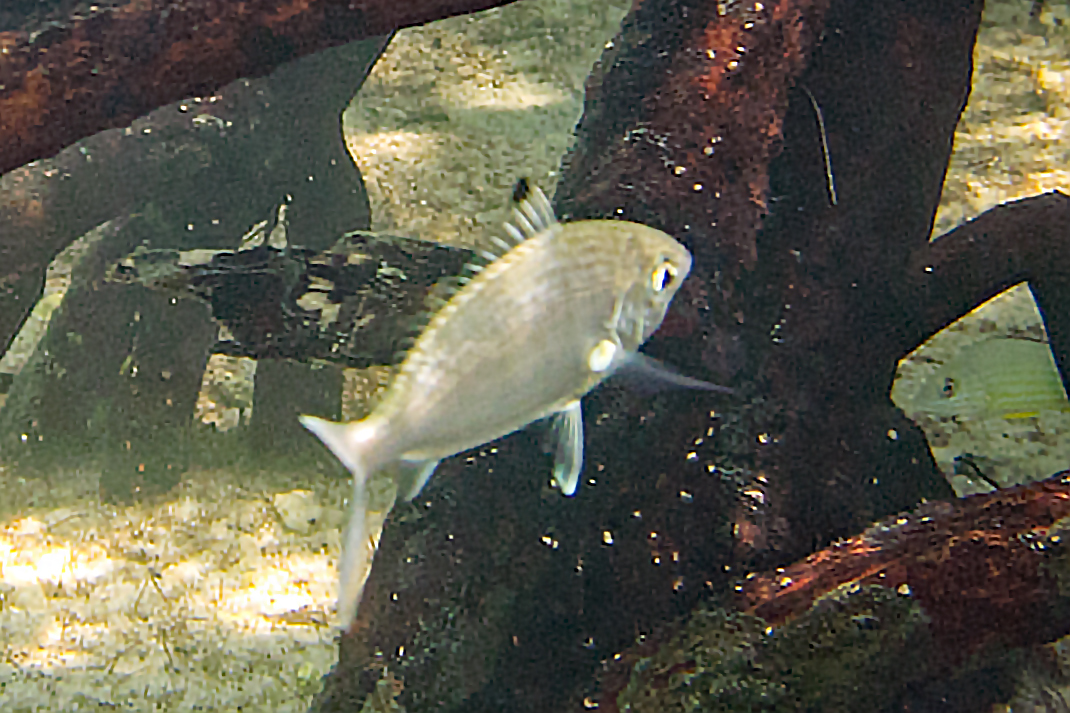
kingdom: Animalia
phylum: Chordata
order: Perciformes
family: Gerreidae
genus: Gerres
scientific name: Gerres oyena
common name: Common silver-biddy
